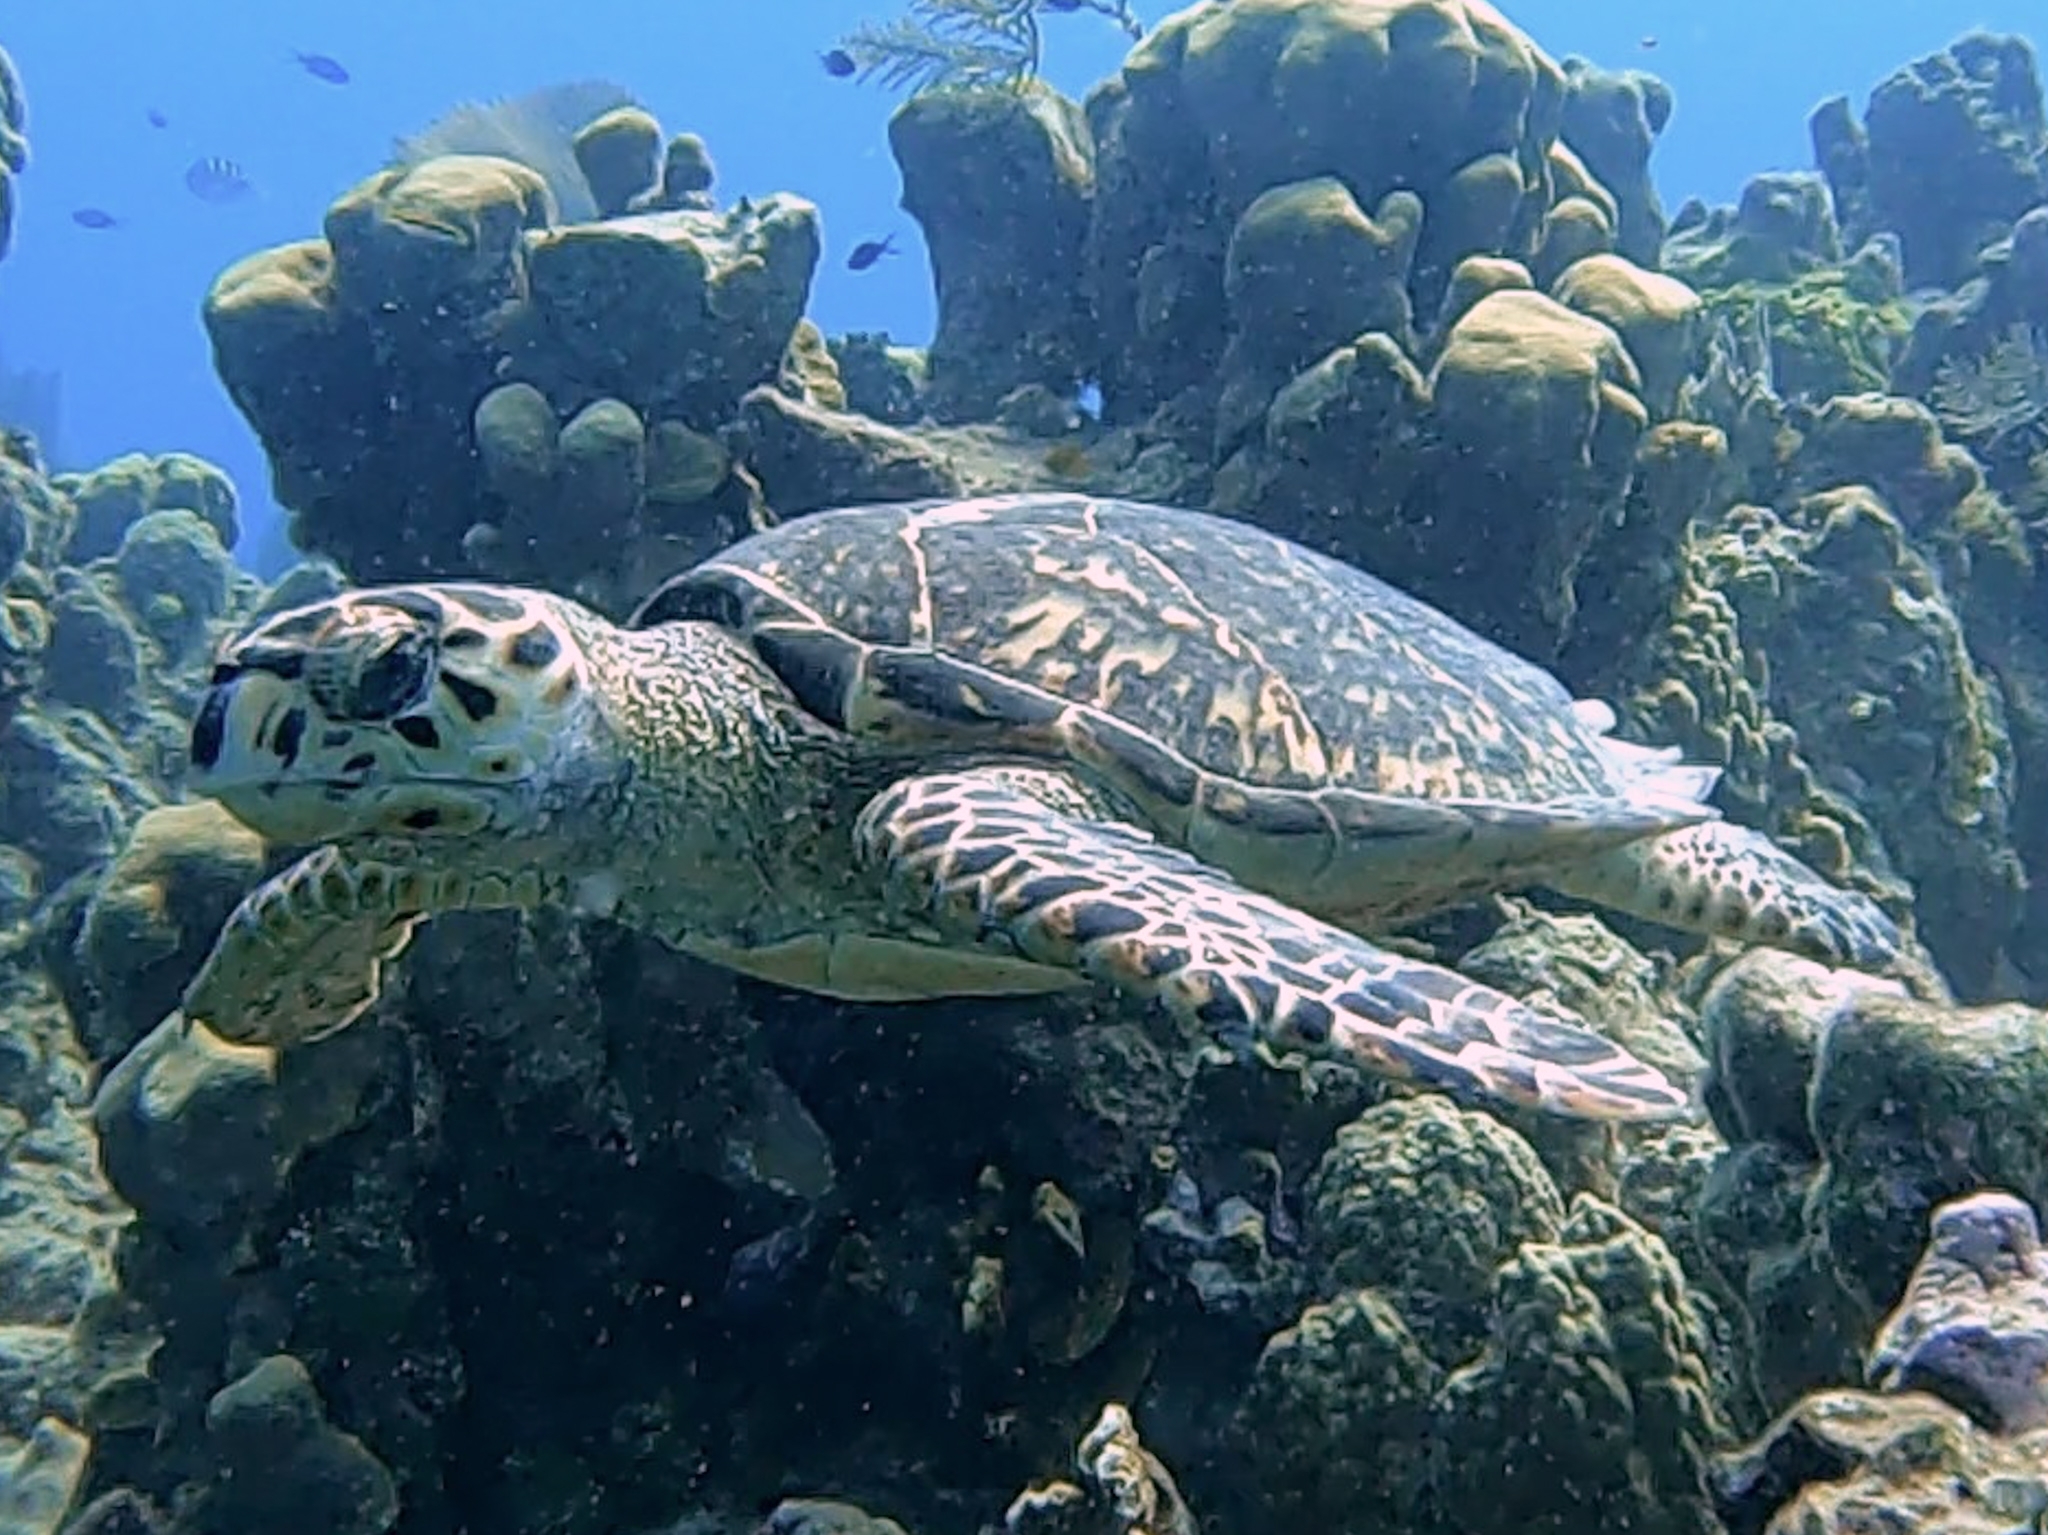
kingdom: Animalia
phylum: Chordata
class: Testudines
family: Cheloniidae
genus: Eretmochelys
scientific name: Eretmochelys imbricata
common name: Hawksbill turtle
